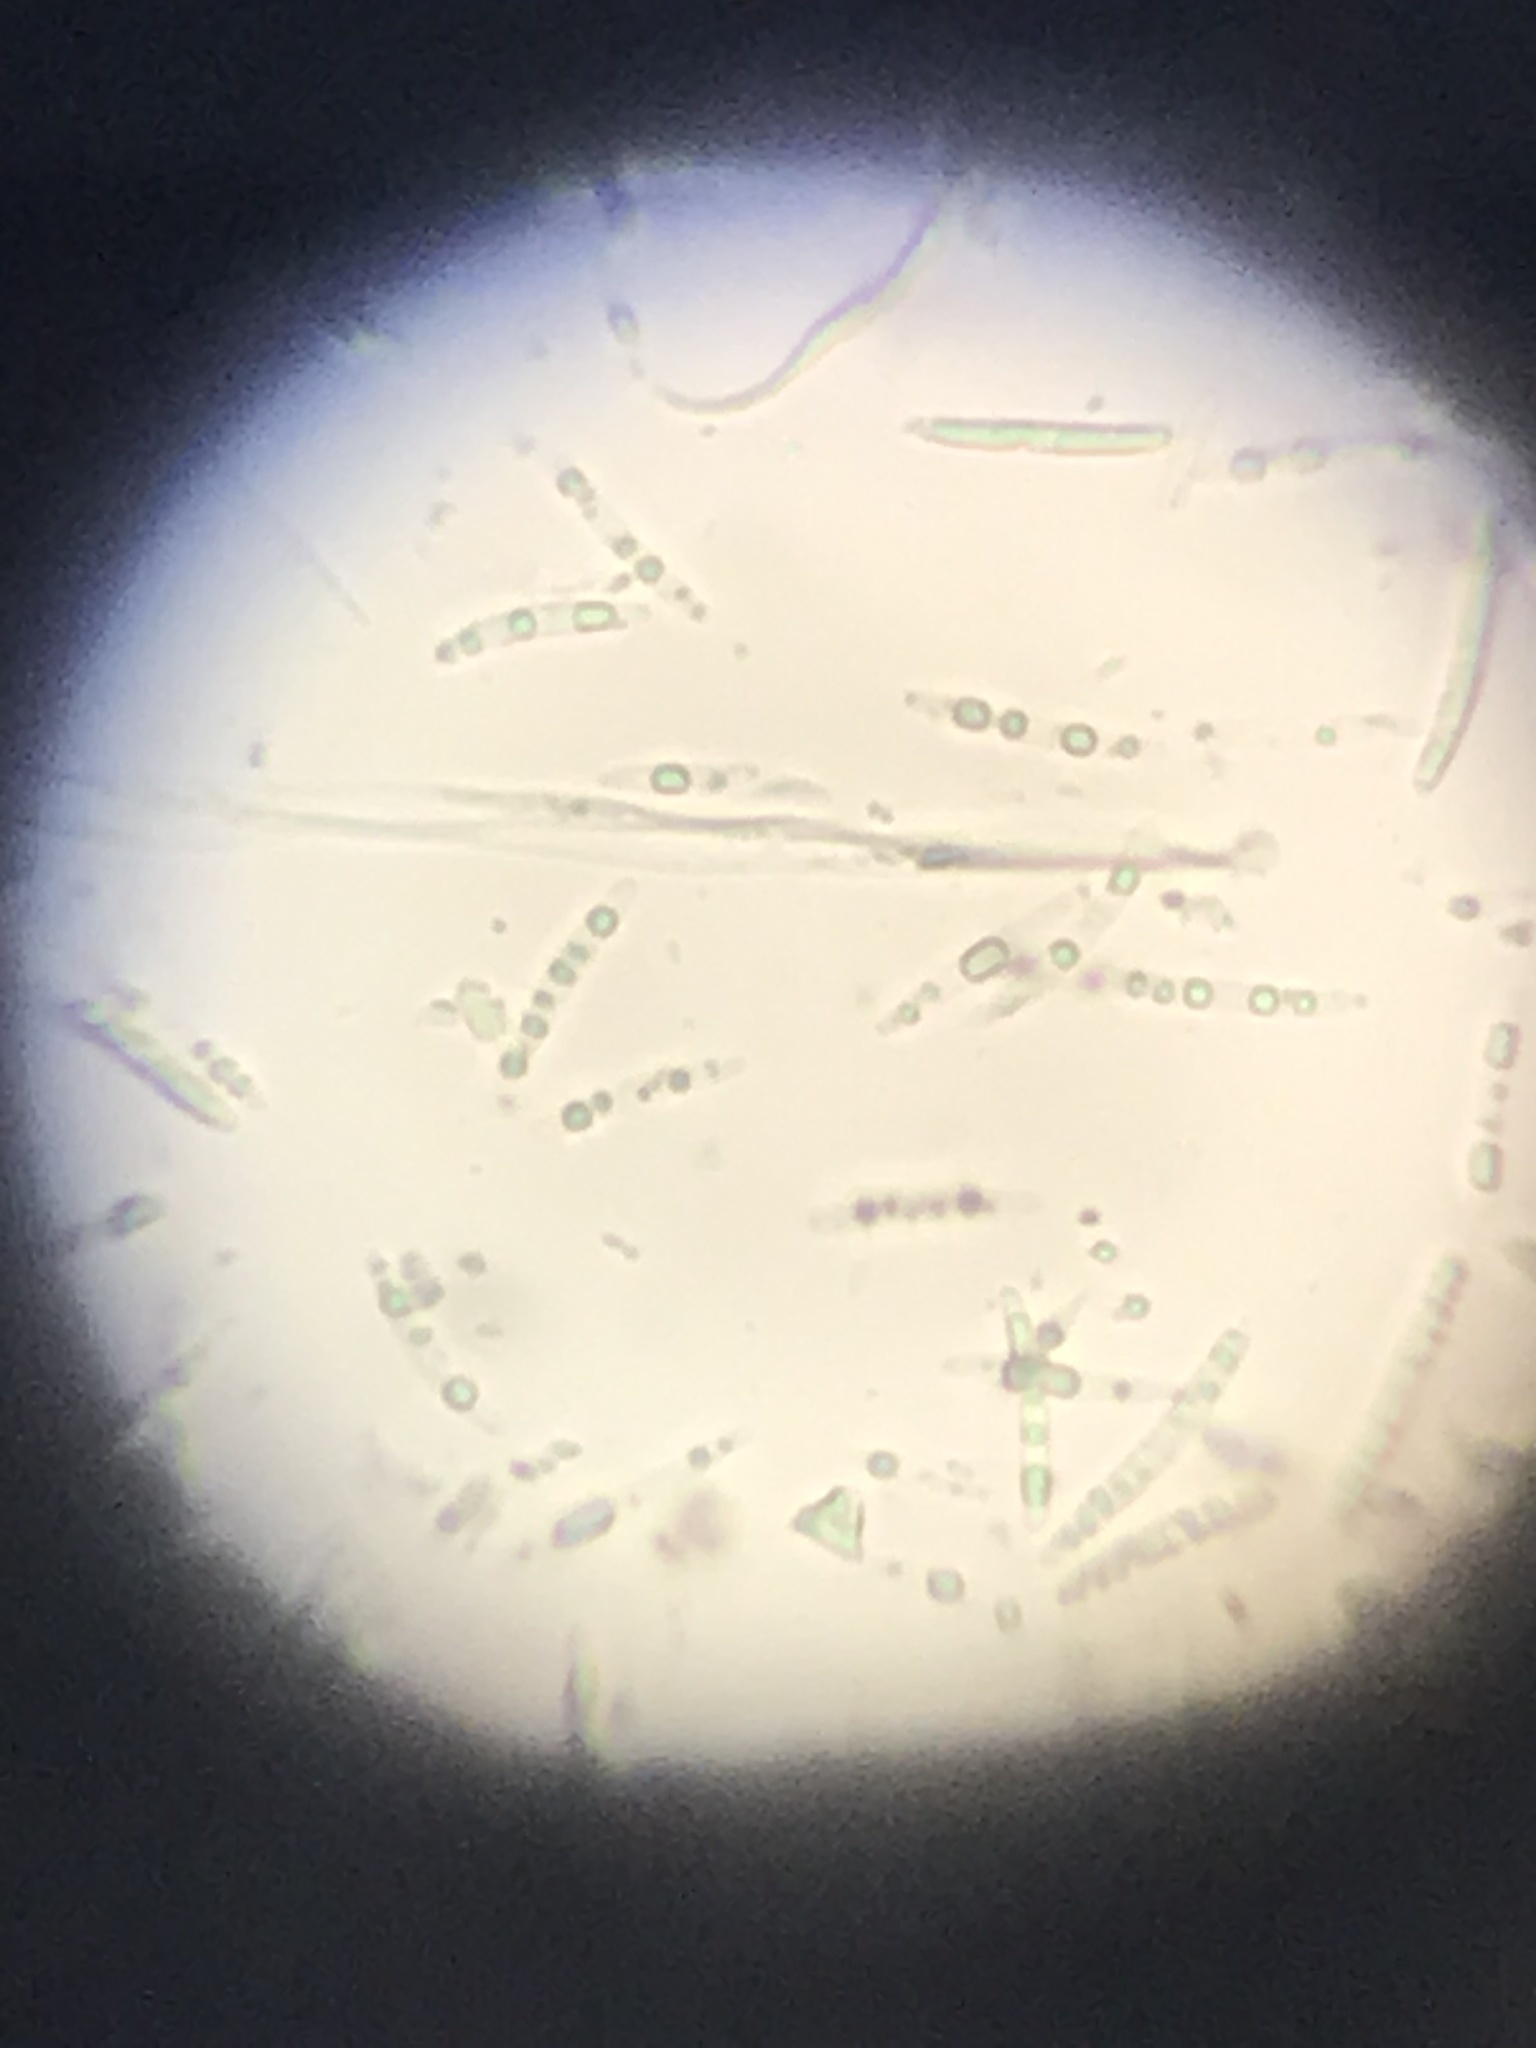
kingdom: Fungi
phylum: Ascomycota
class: Leotiomycetes
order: Helotiales
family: Mollisiaceae
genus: Trichobelonium
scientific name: Trichobelonium kneiffii
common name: Reed mat disco
